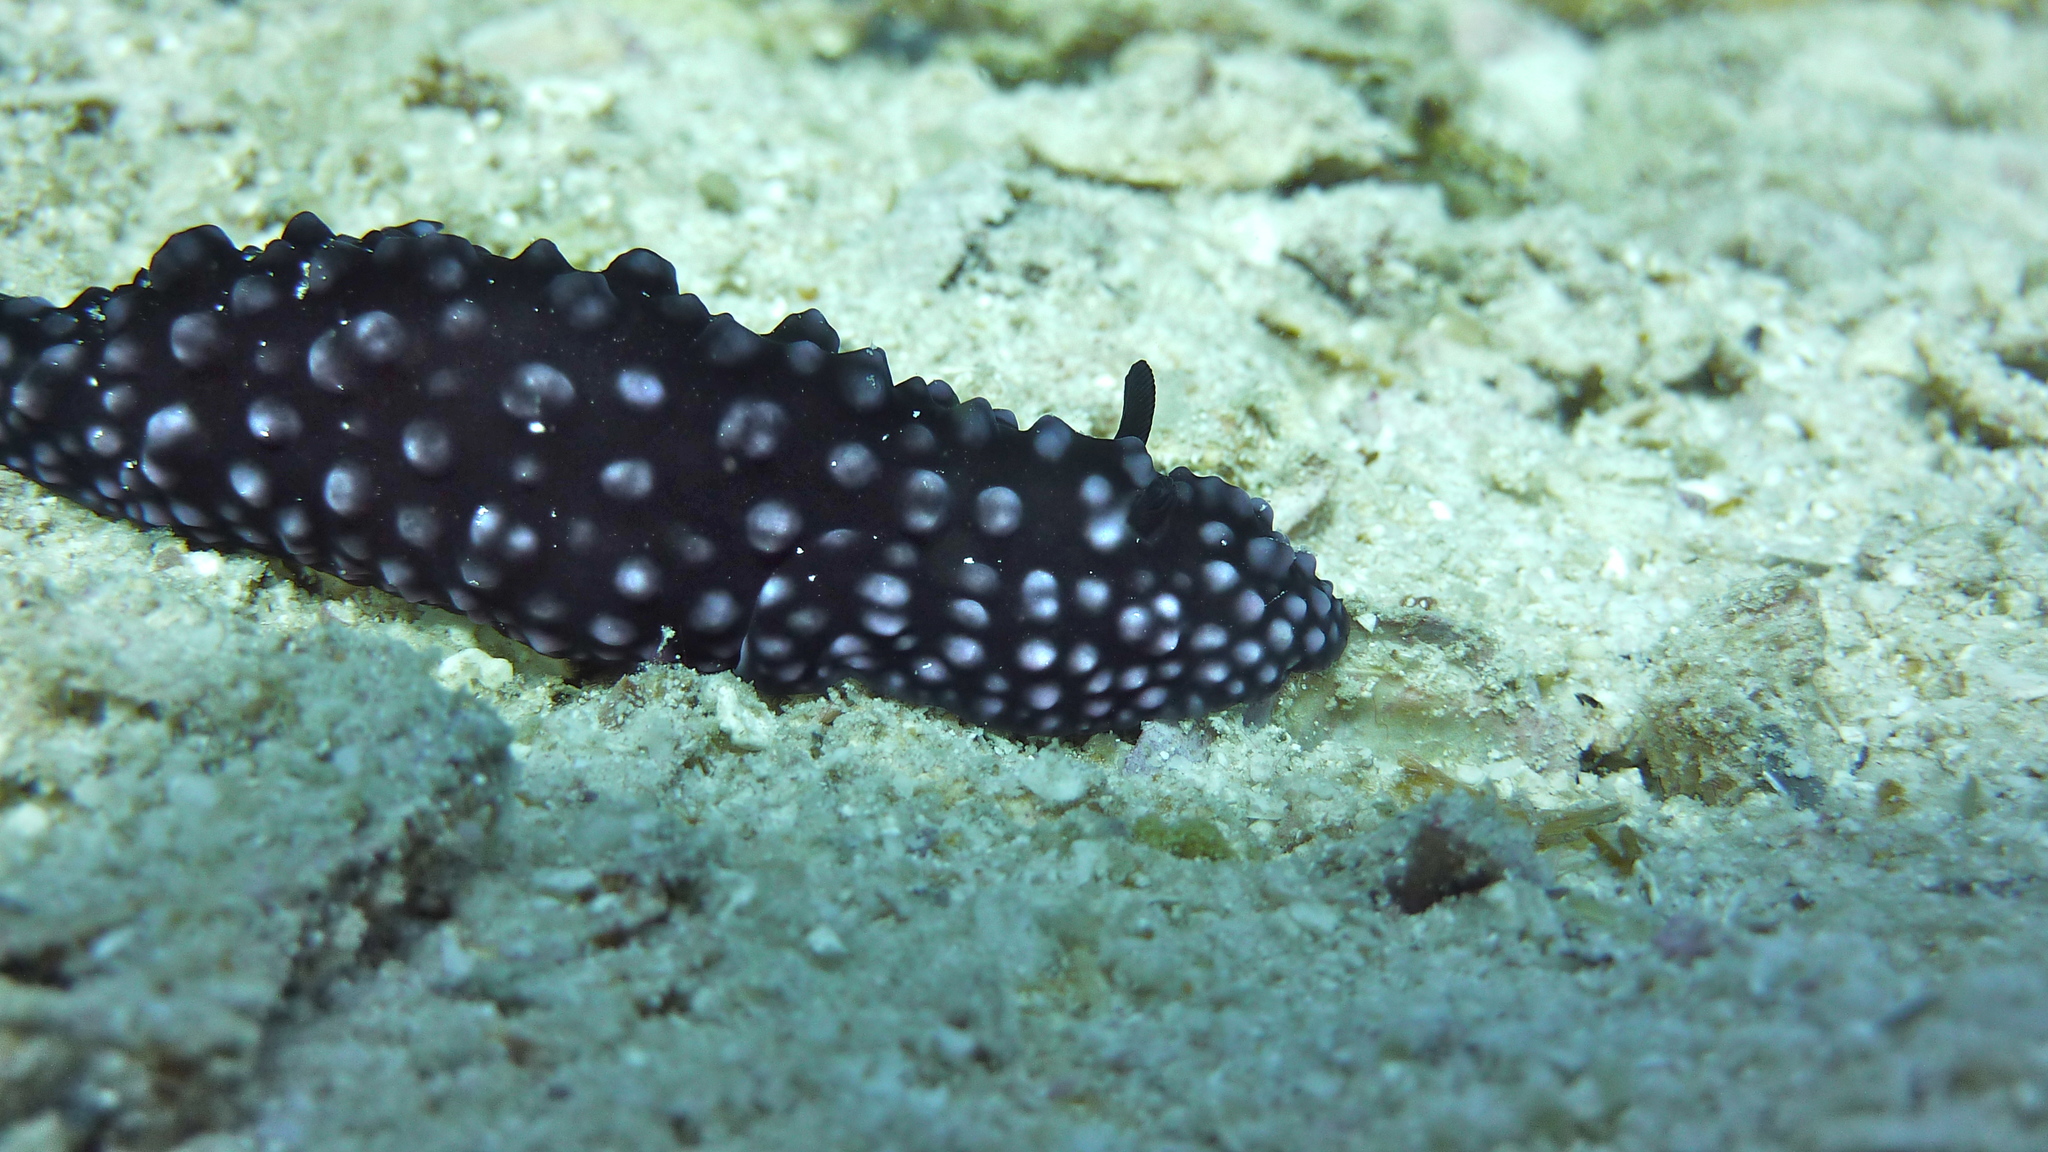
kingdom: Animalia
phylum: Mollusca
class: Gastropoda
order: Nudibranchia
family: Phyllidiidae
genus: Phyllidiella
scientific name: Phyllidiella nigra
